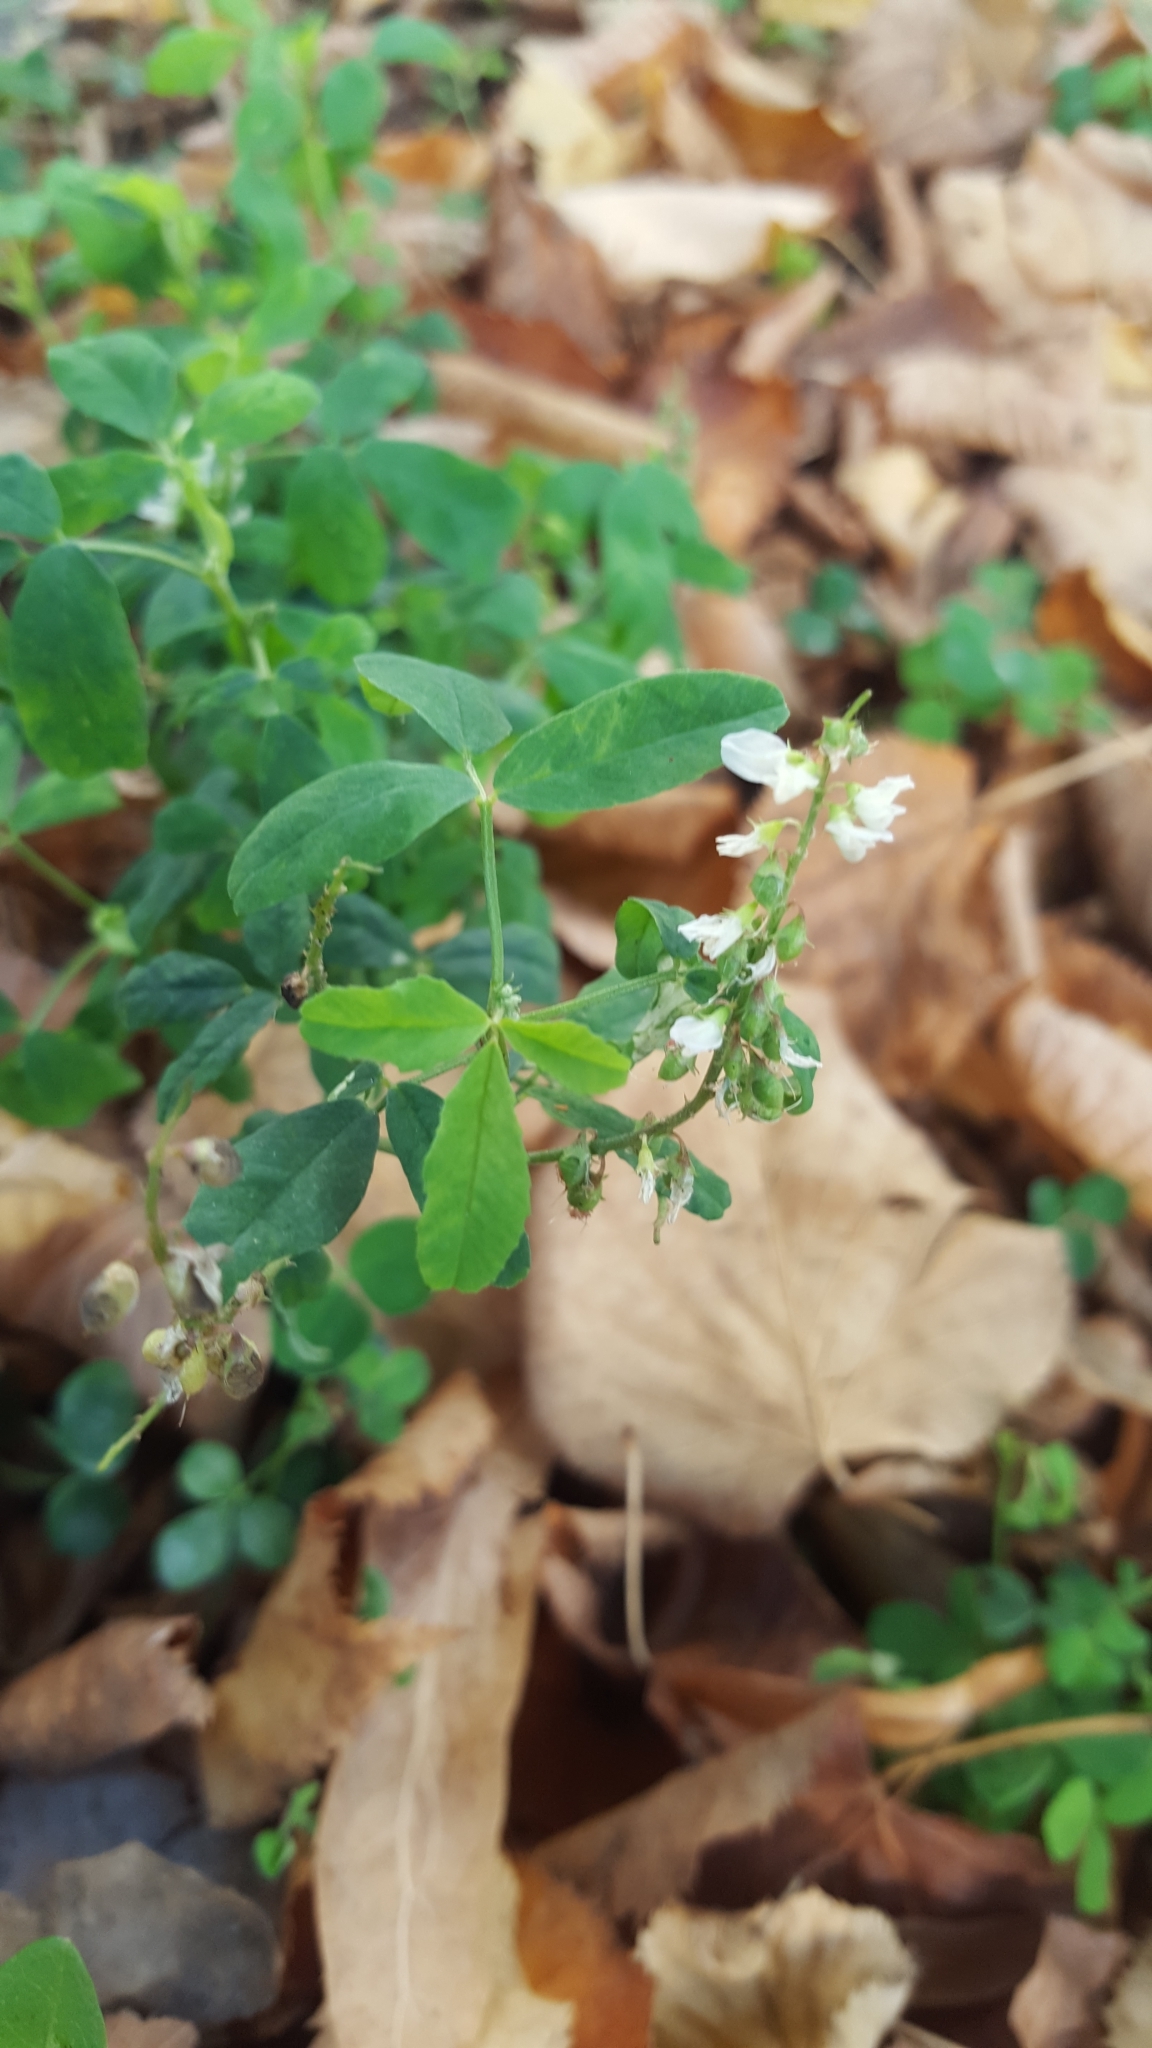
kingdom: Plantae
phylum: Tracheophyta
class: Magnoliopsida
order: Fabales
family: Fabaceae
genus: Melilotus
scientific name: Melilotus albus
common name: White melilot
